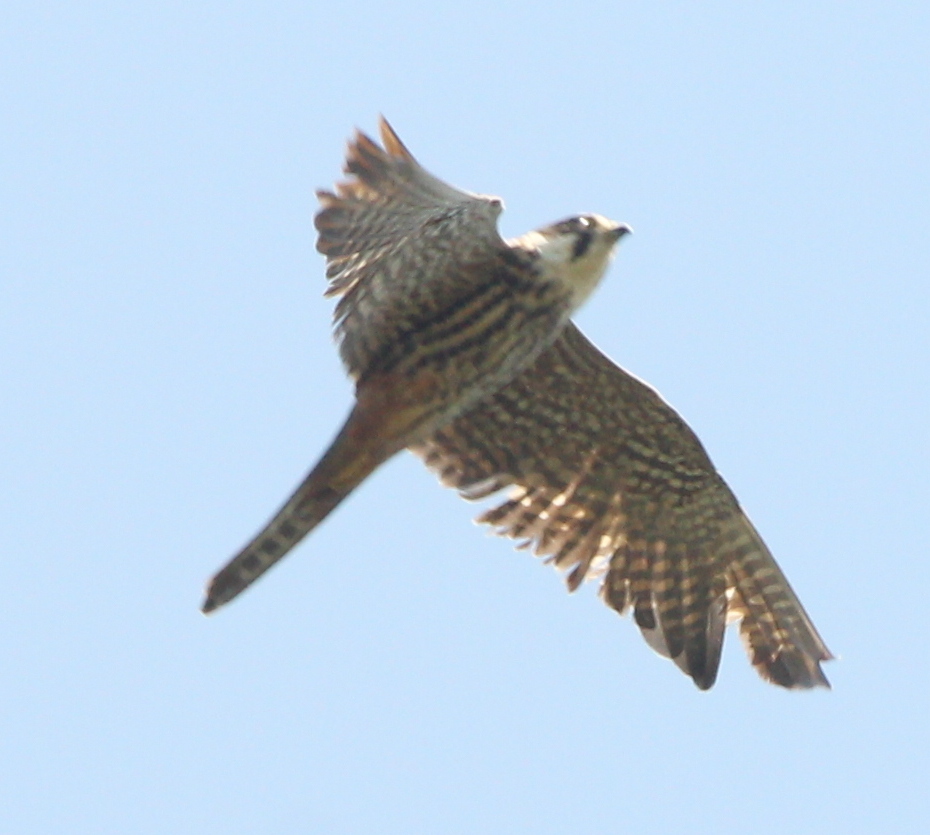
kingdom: Animalia
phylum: Chordata
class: Aves
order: Falconiformes
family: Falconidae
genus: Falco
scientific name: Falco subbuteo
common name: Eurasian hobby
